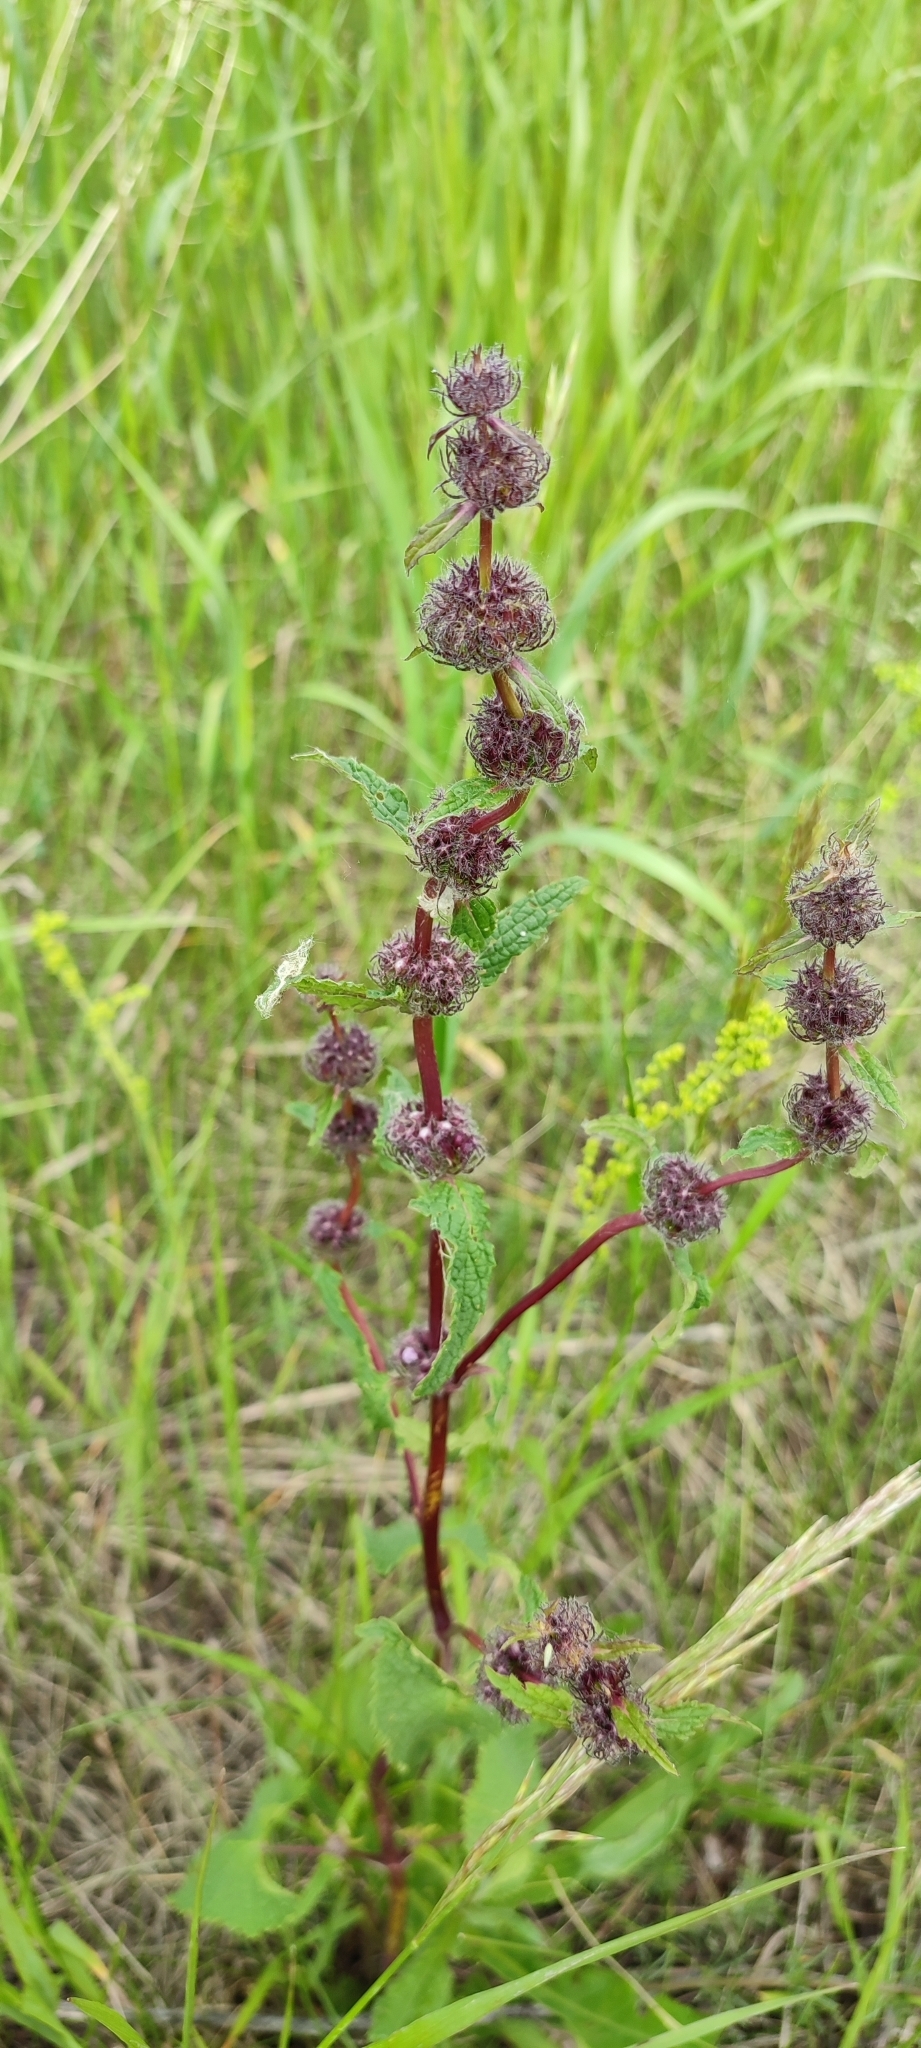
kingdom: Plantae
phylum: Tracheophyta
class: Magnoliopsida
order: Lamiales
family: Lamiaceae
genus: Phlomoides
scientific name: Phlomoides tuberosa
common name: Tuberous jerusalem sage
